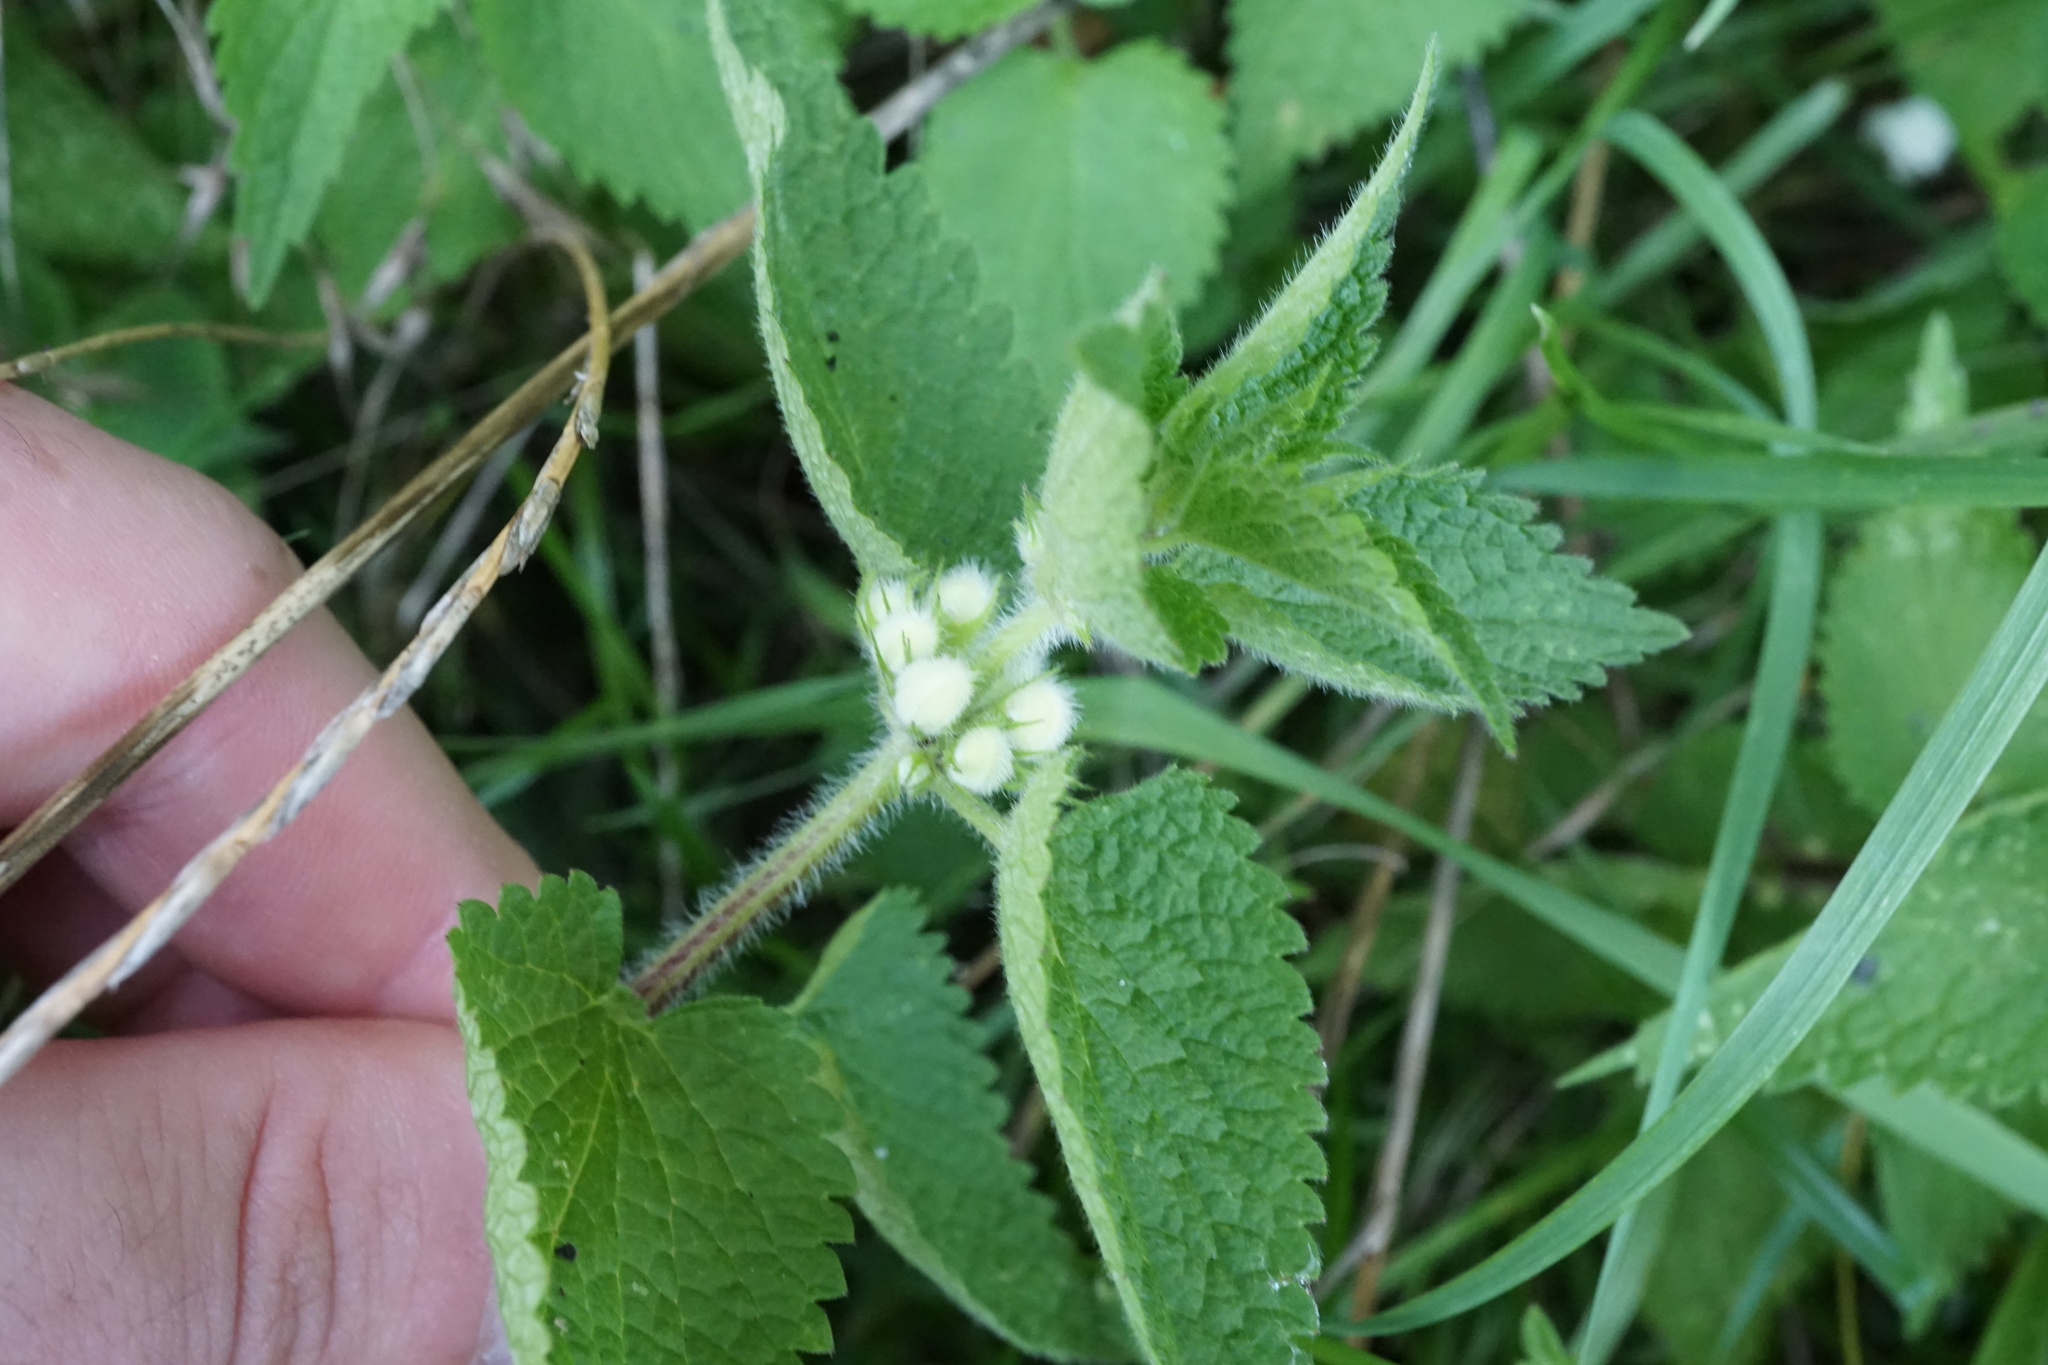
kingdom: Plantae
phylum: Tracheophyta
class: Magnoliopsida
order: Lamiales
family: Lamiaceae
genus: Lamium
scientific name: Lamium album
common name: White dead-nettle
